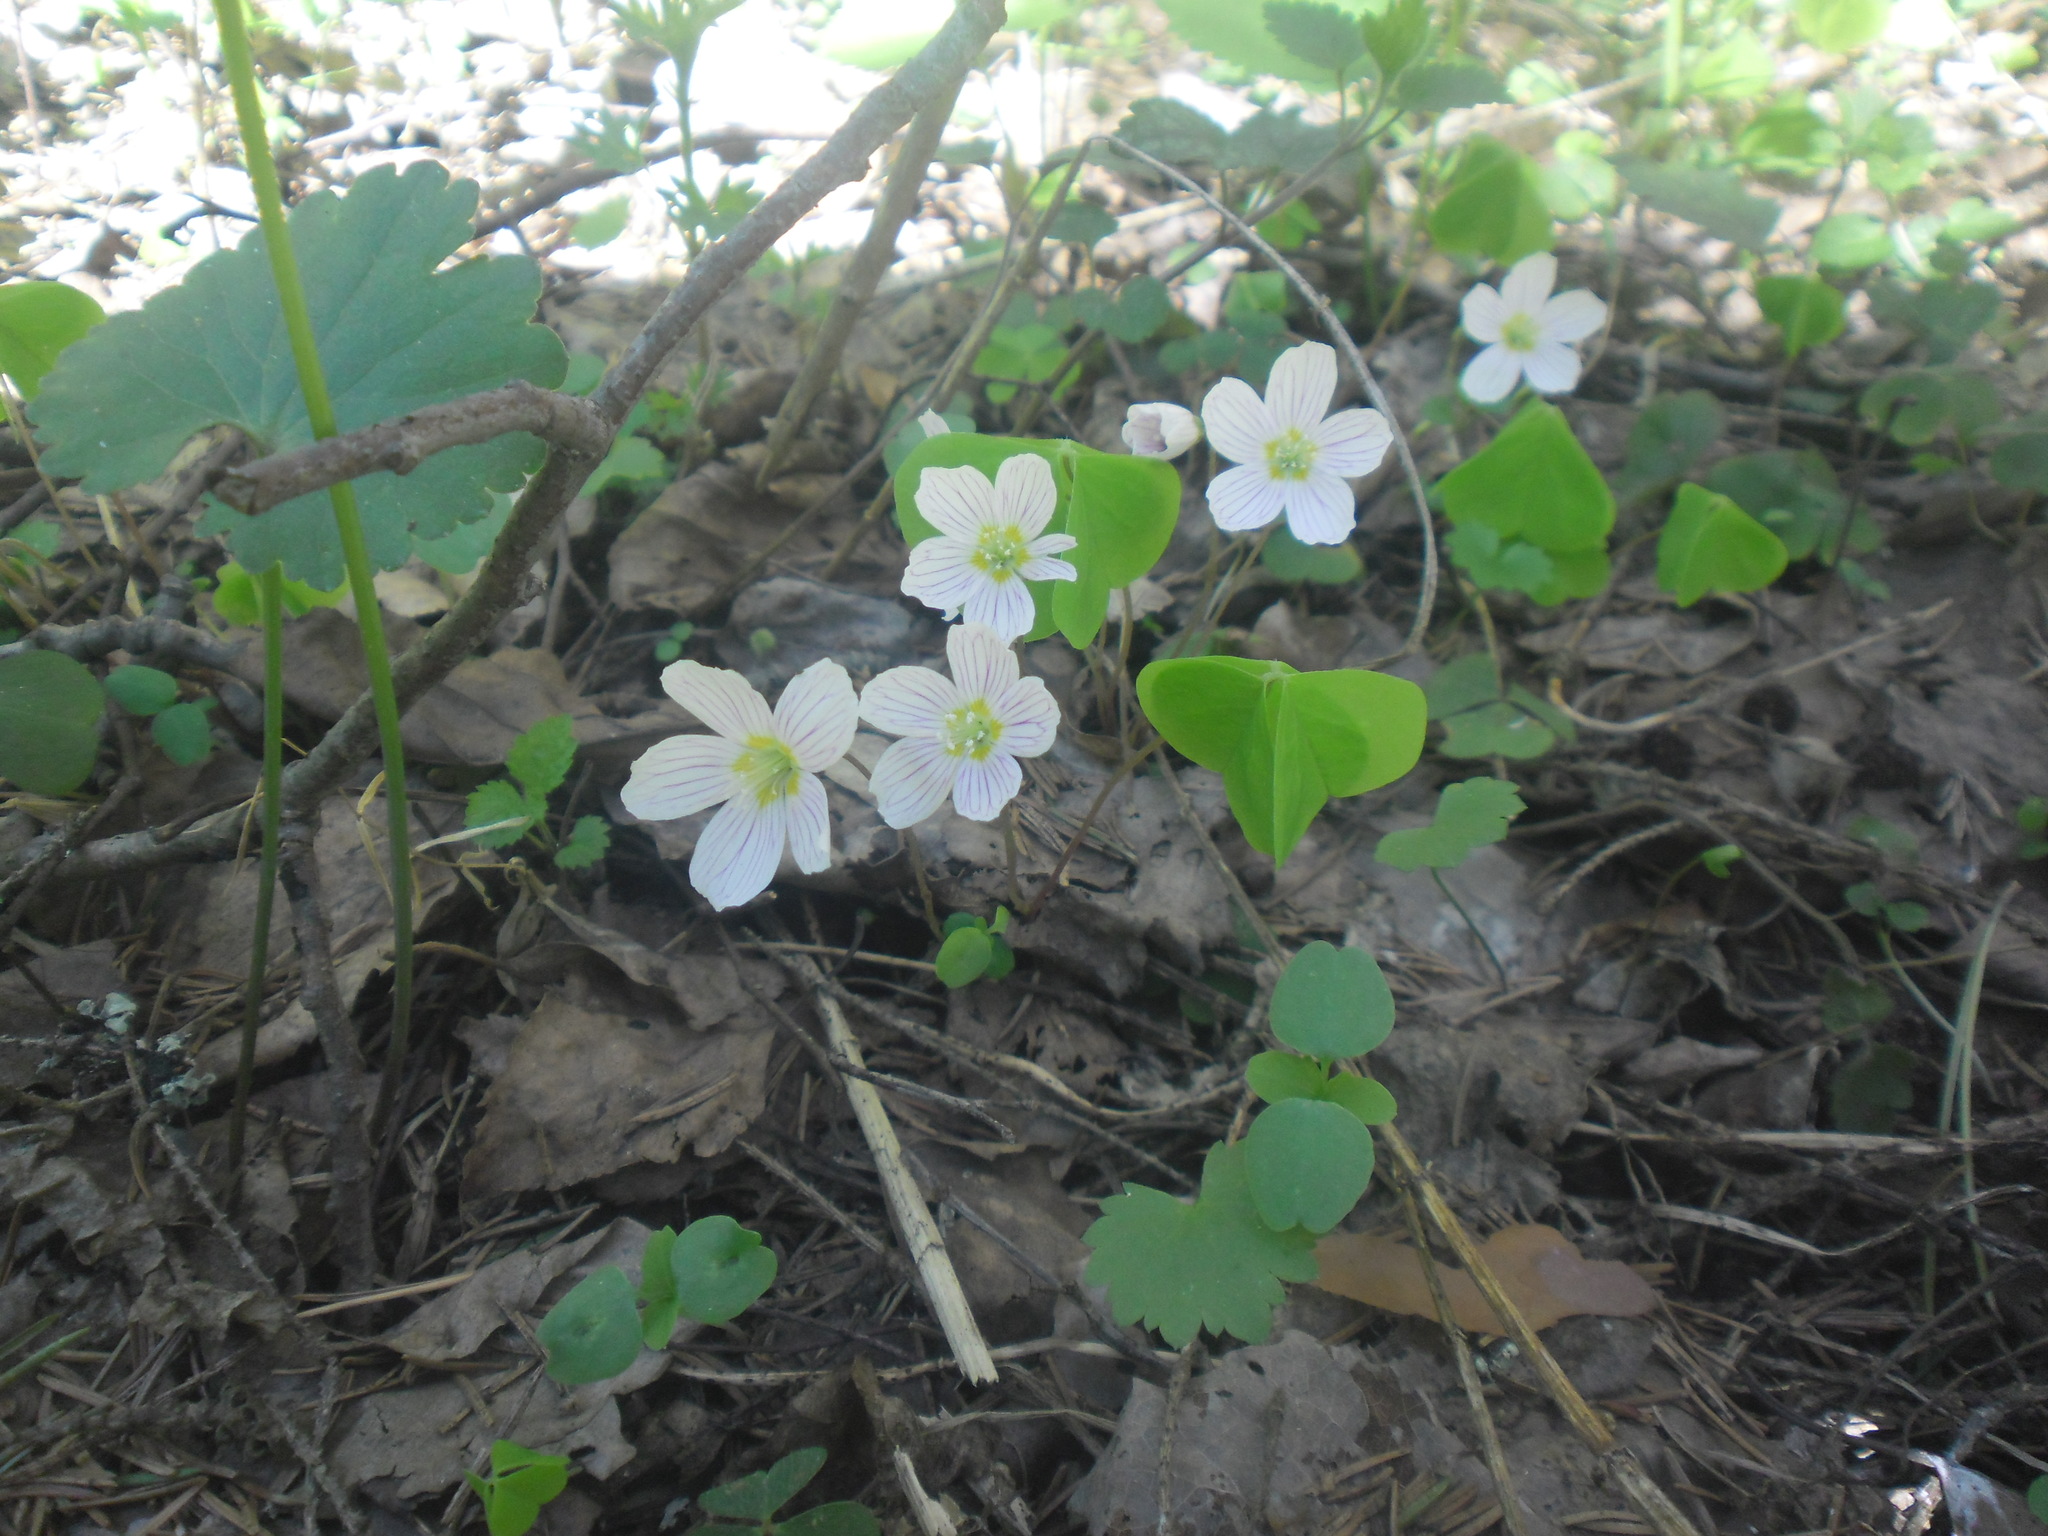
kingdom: Plantae
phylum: Tracheophyta
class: Magnoliopsida
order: Oxalidales
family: Oxalidaceae
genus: Oxalis
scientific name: Oxalis acetosella
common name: Wood-sorrel
